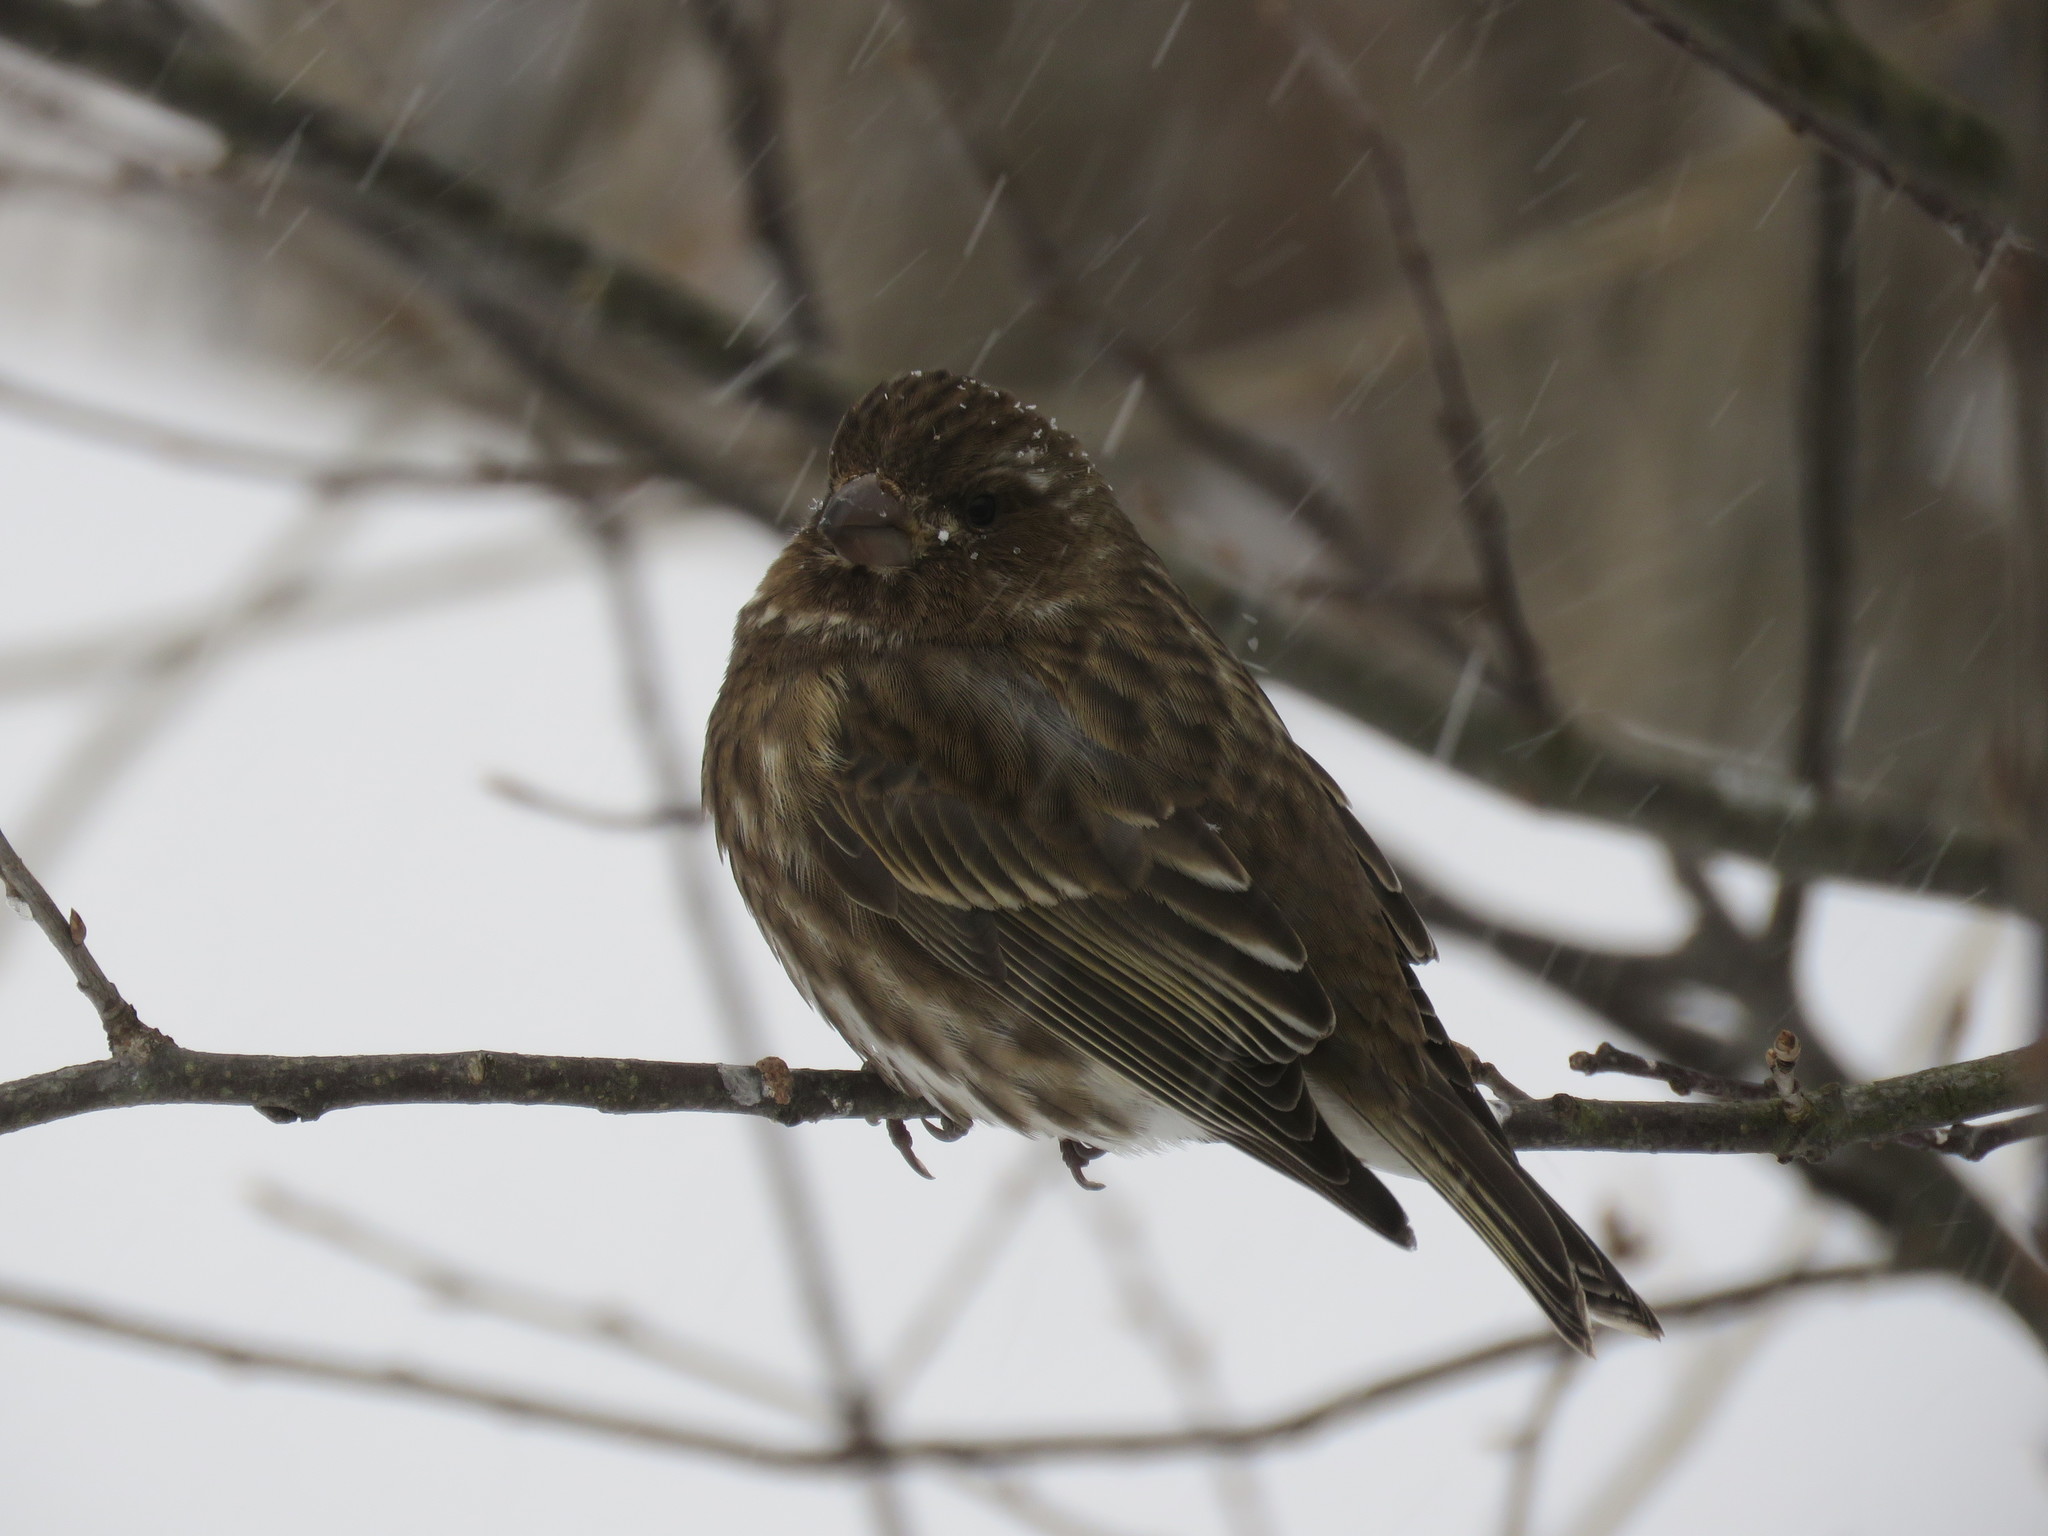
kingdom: Animalia
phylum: Chordata
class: Aves
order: Passeriformes
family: Fringillidae
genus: Haemorhous
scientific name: Haemorhous purpureus
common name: Purple finch
